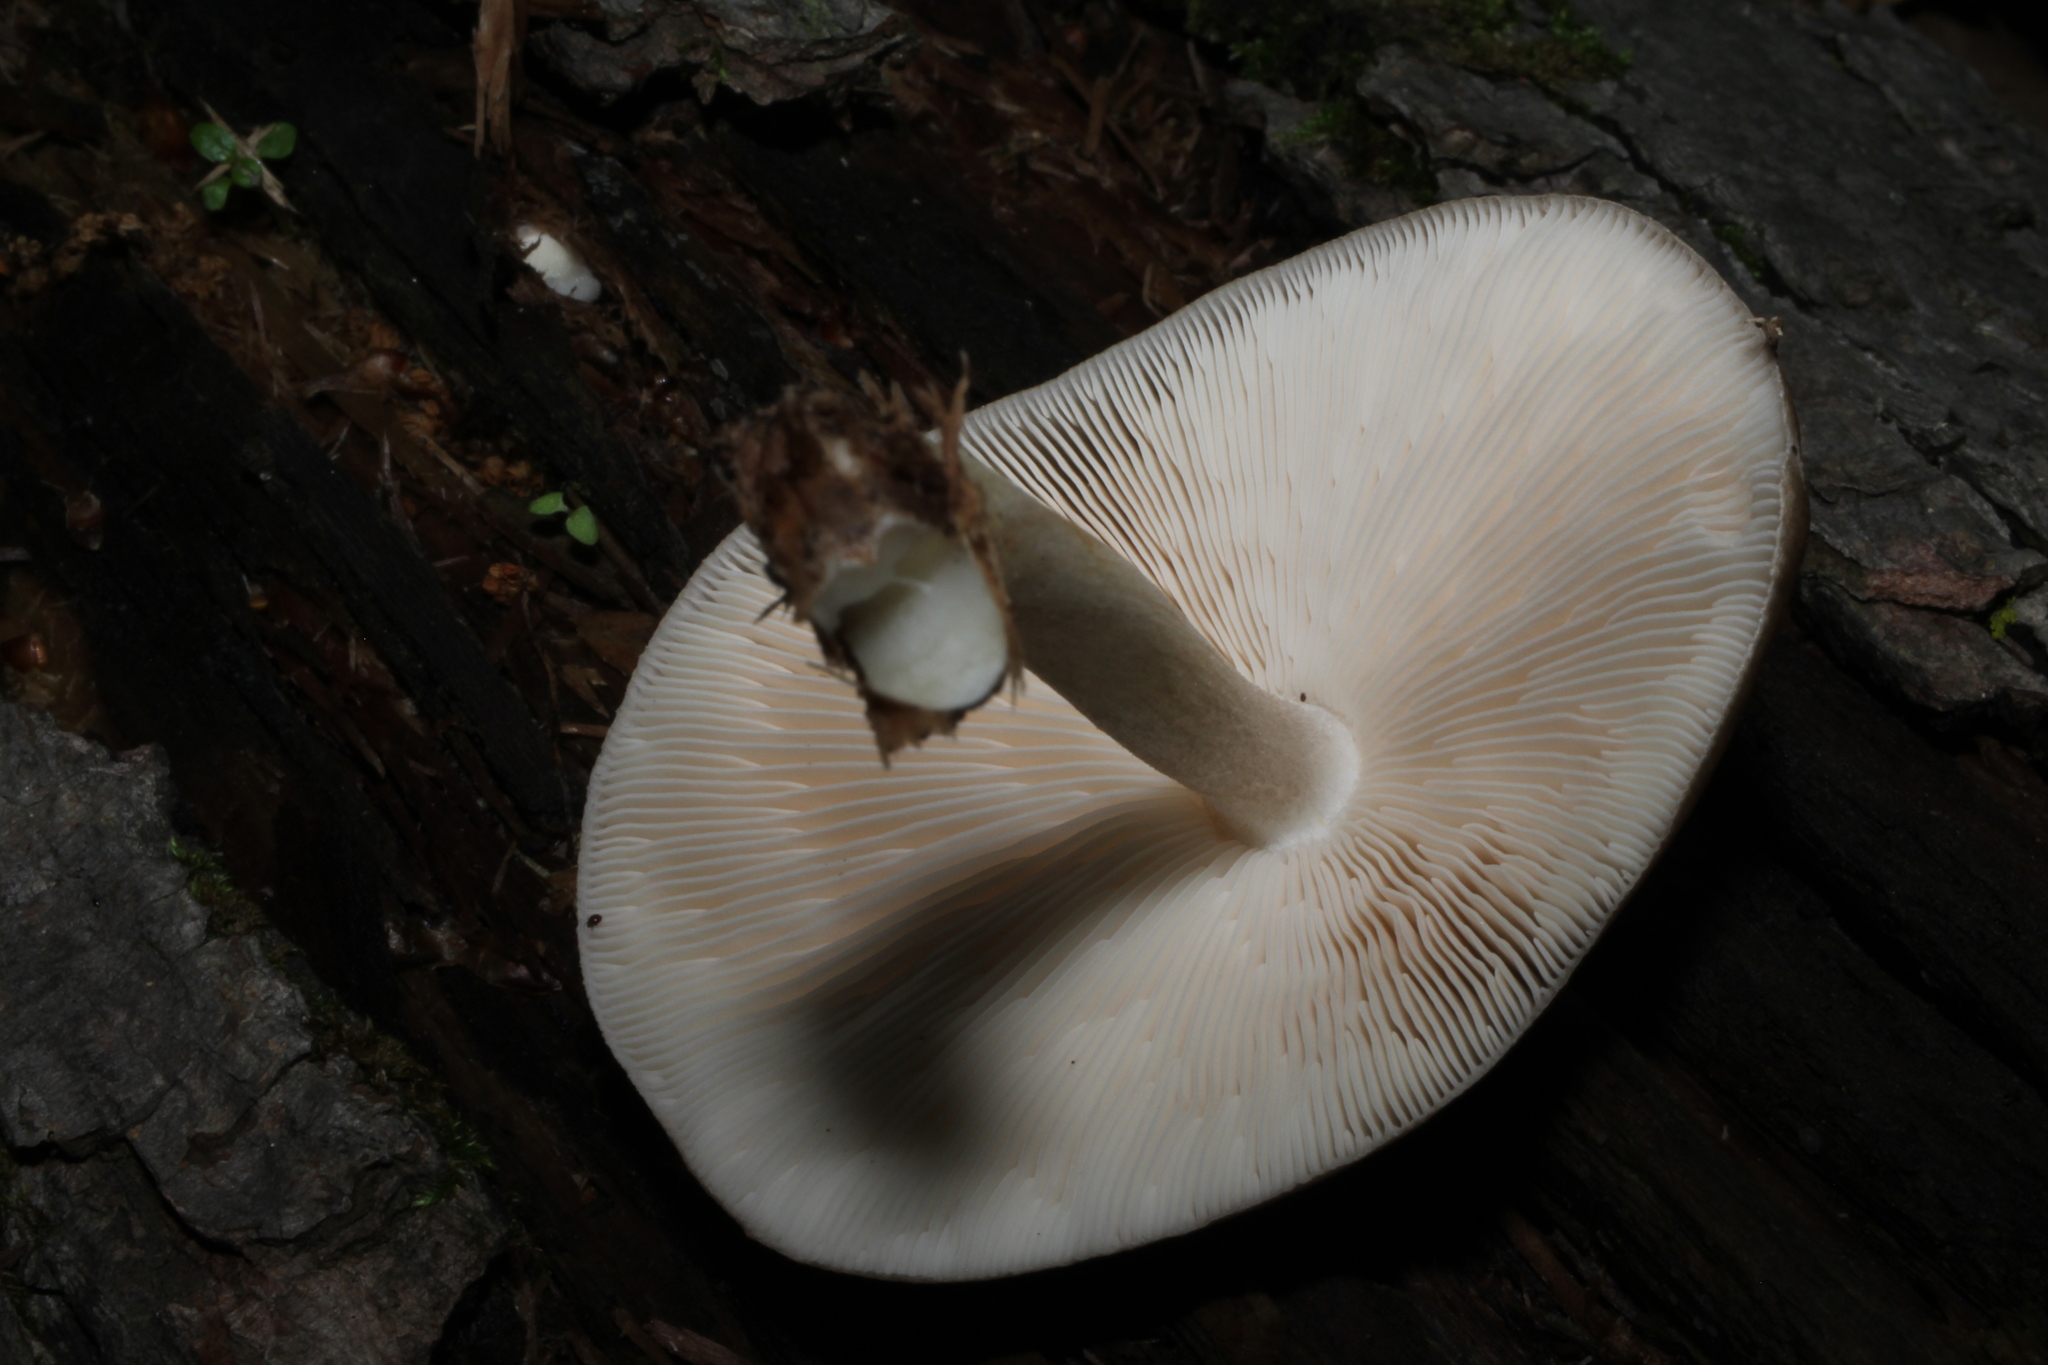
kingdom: Fungi
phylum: Basidiomycota
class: Agaricomycetes
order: Agaricales
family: Pluteaceae
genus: Pluteus
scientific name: Pluteus cervinus
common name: Deer shield
